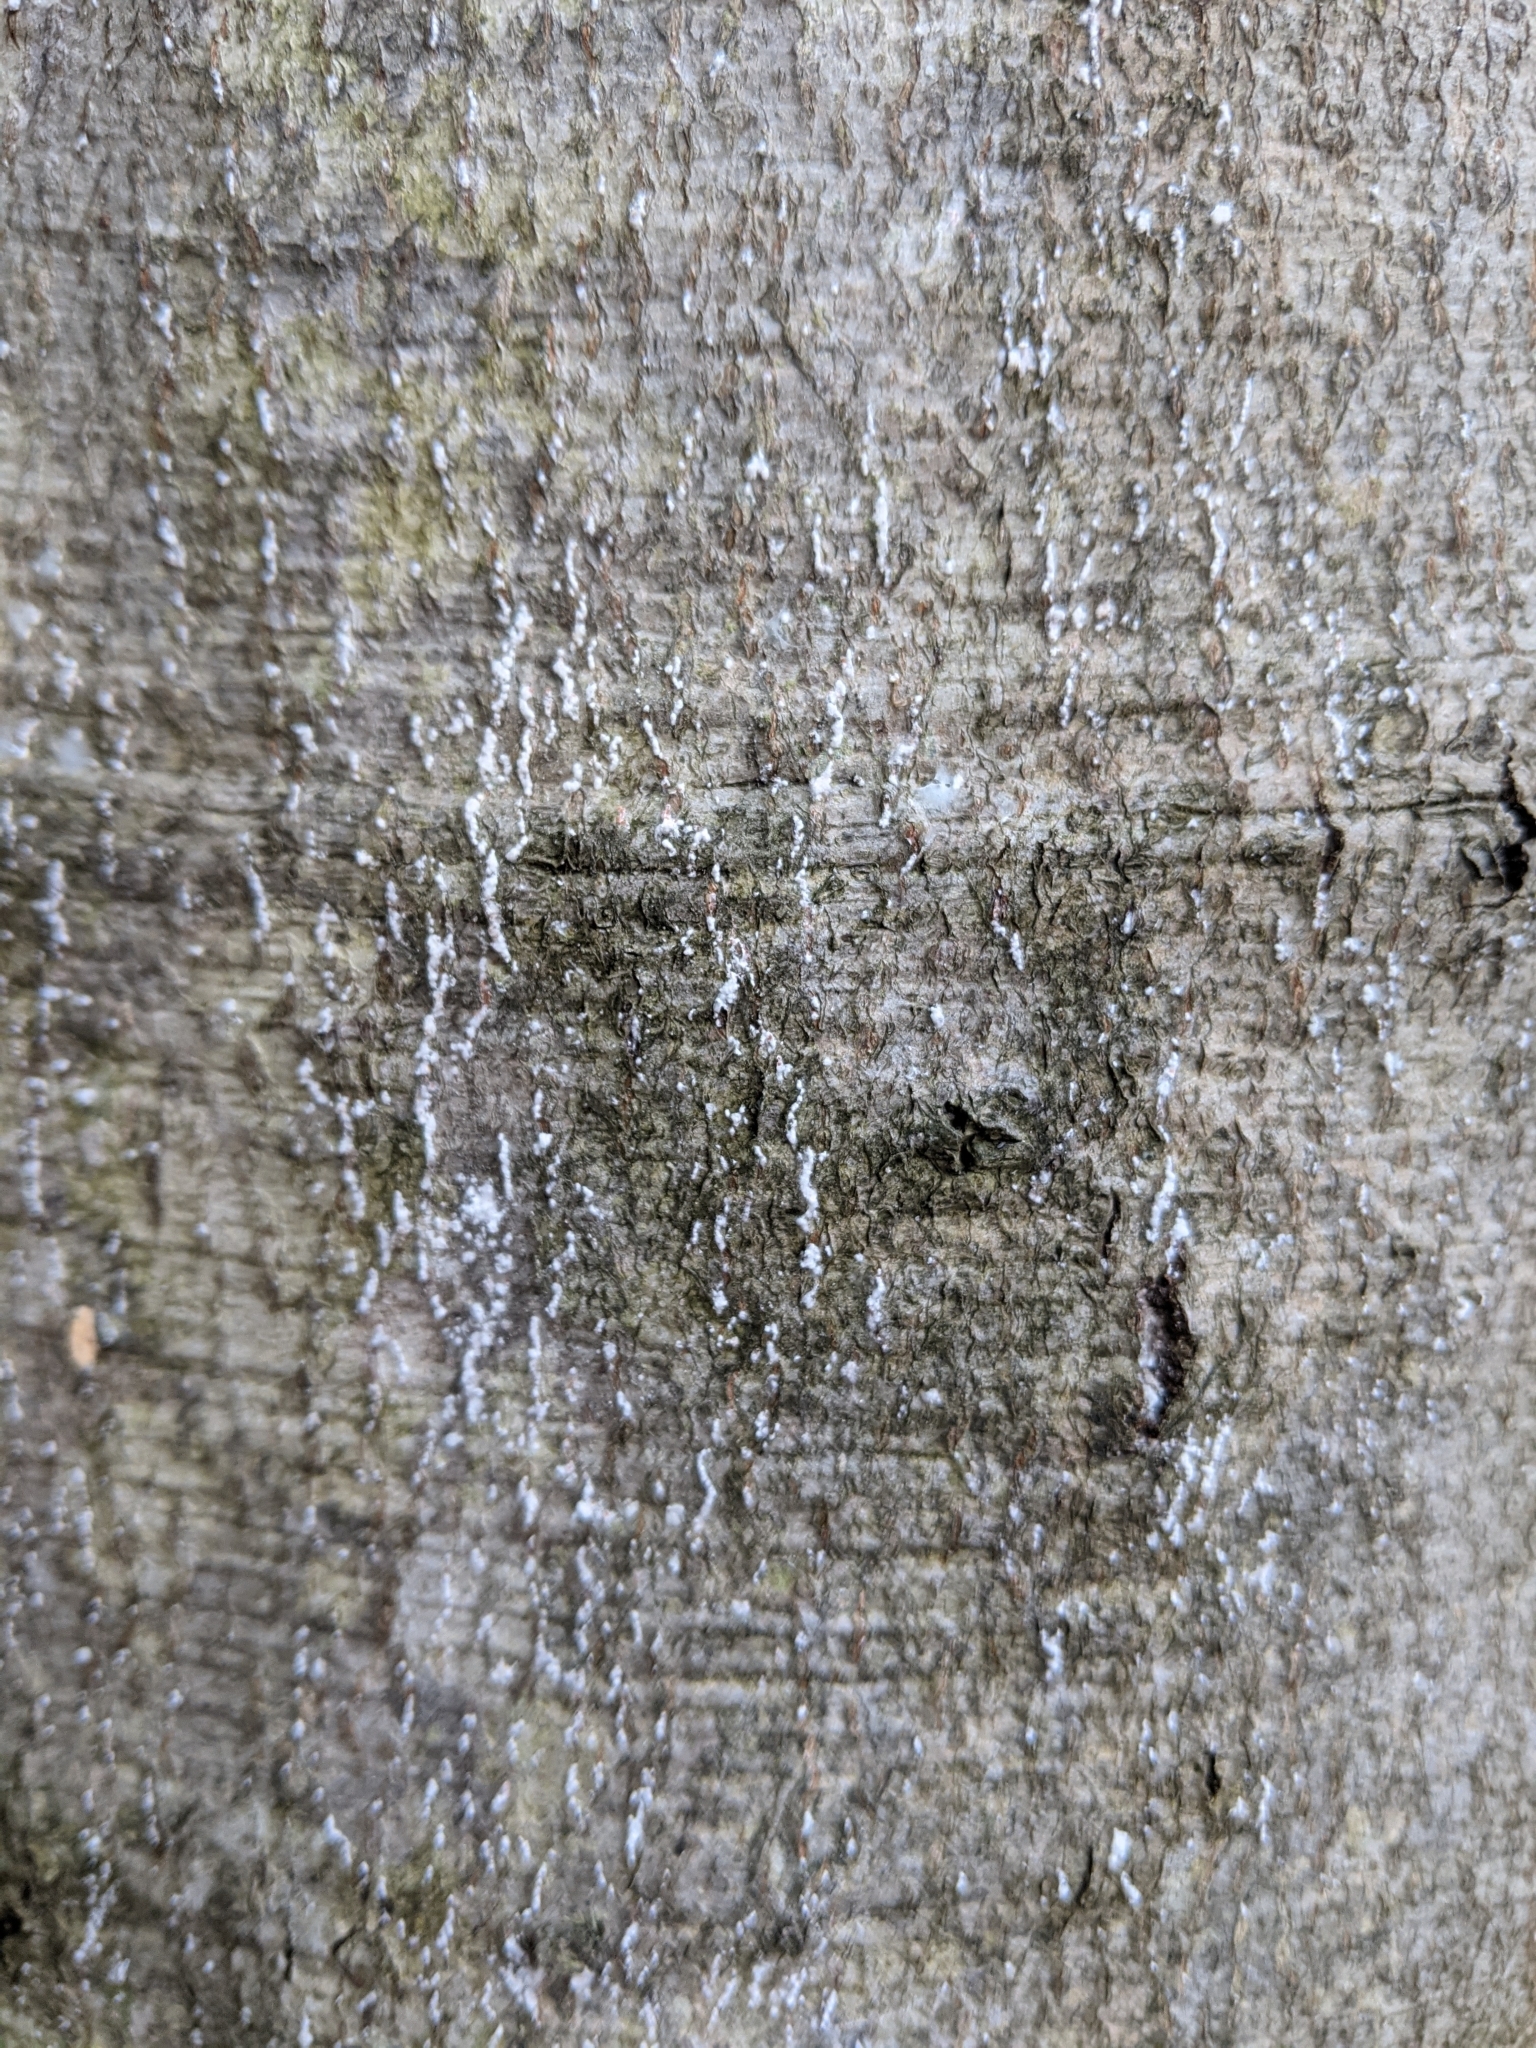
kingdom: Animalia
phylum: Arthropoda
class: Insecta
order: Hemiptera
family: Eriococcidae
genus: Cryptococcus
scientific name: Cryptococcus fagisuga
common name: Beech scale
